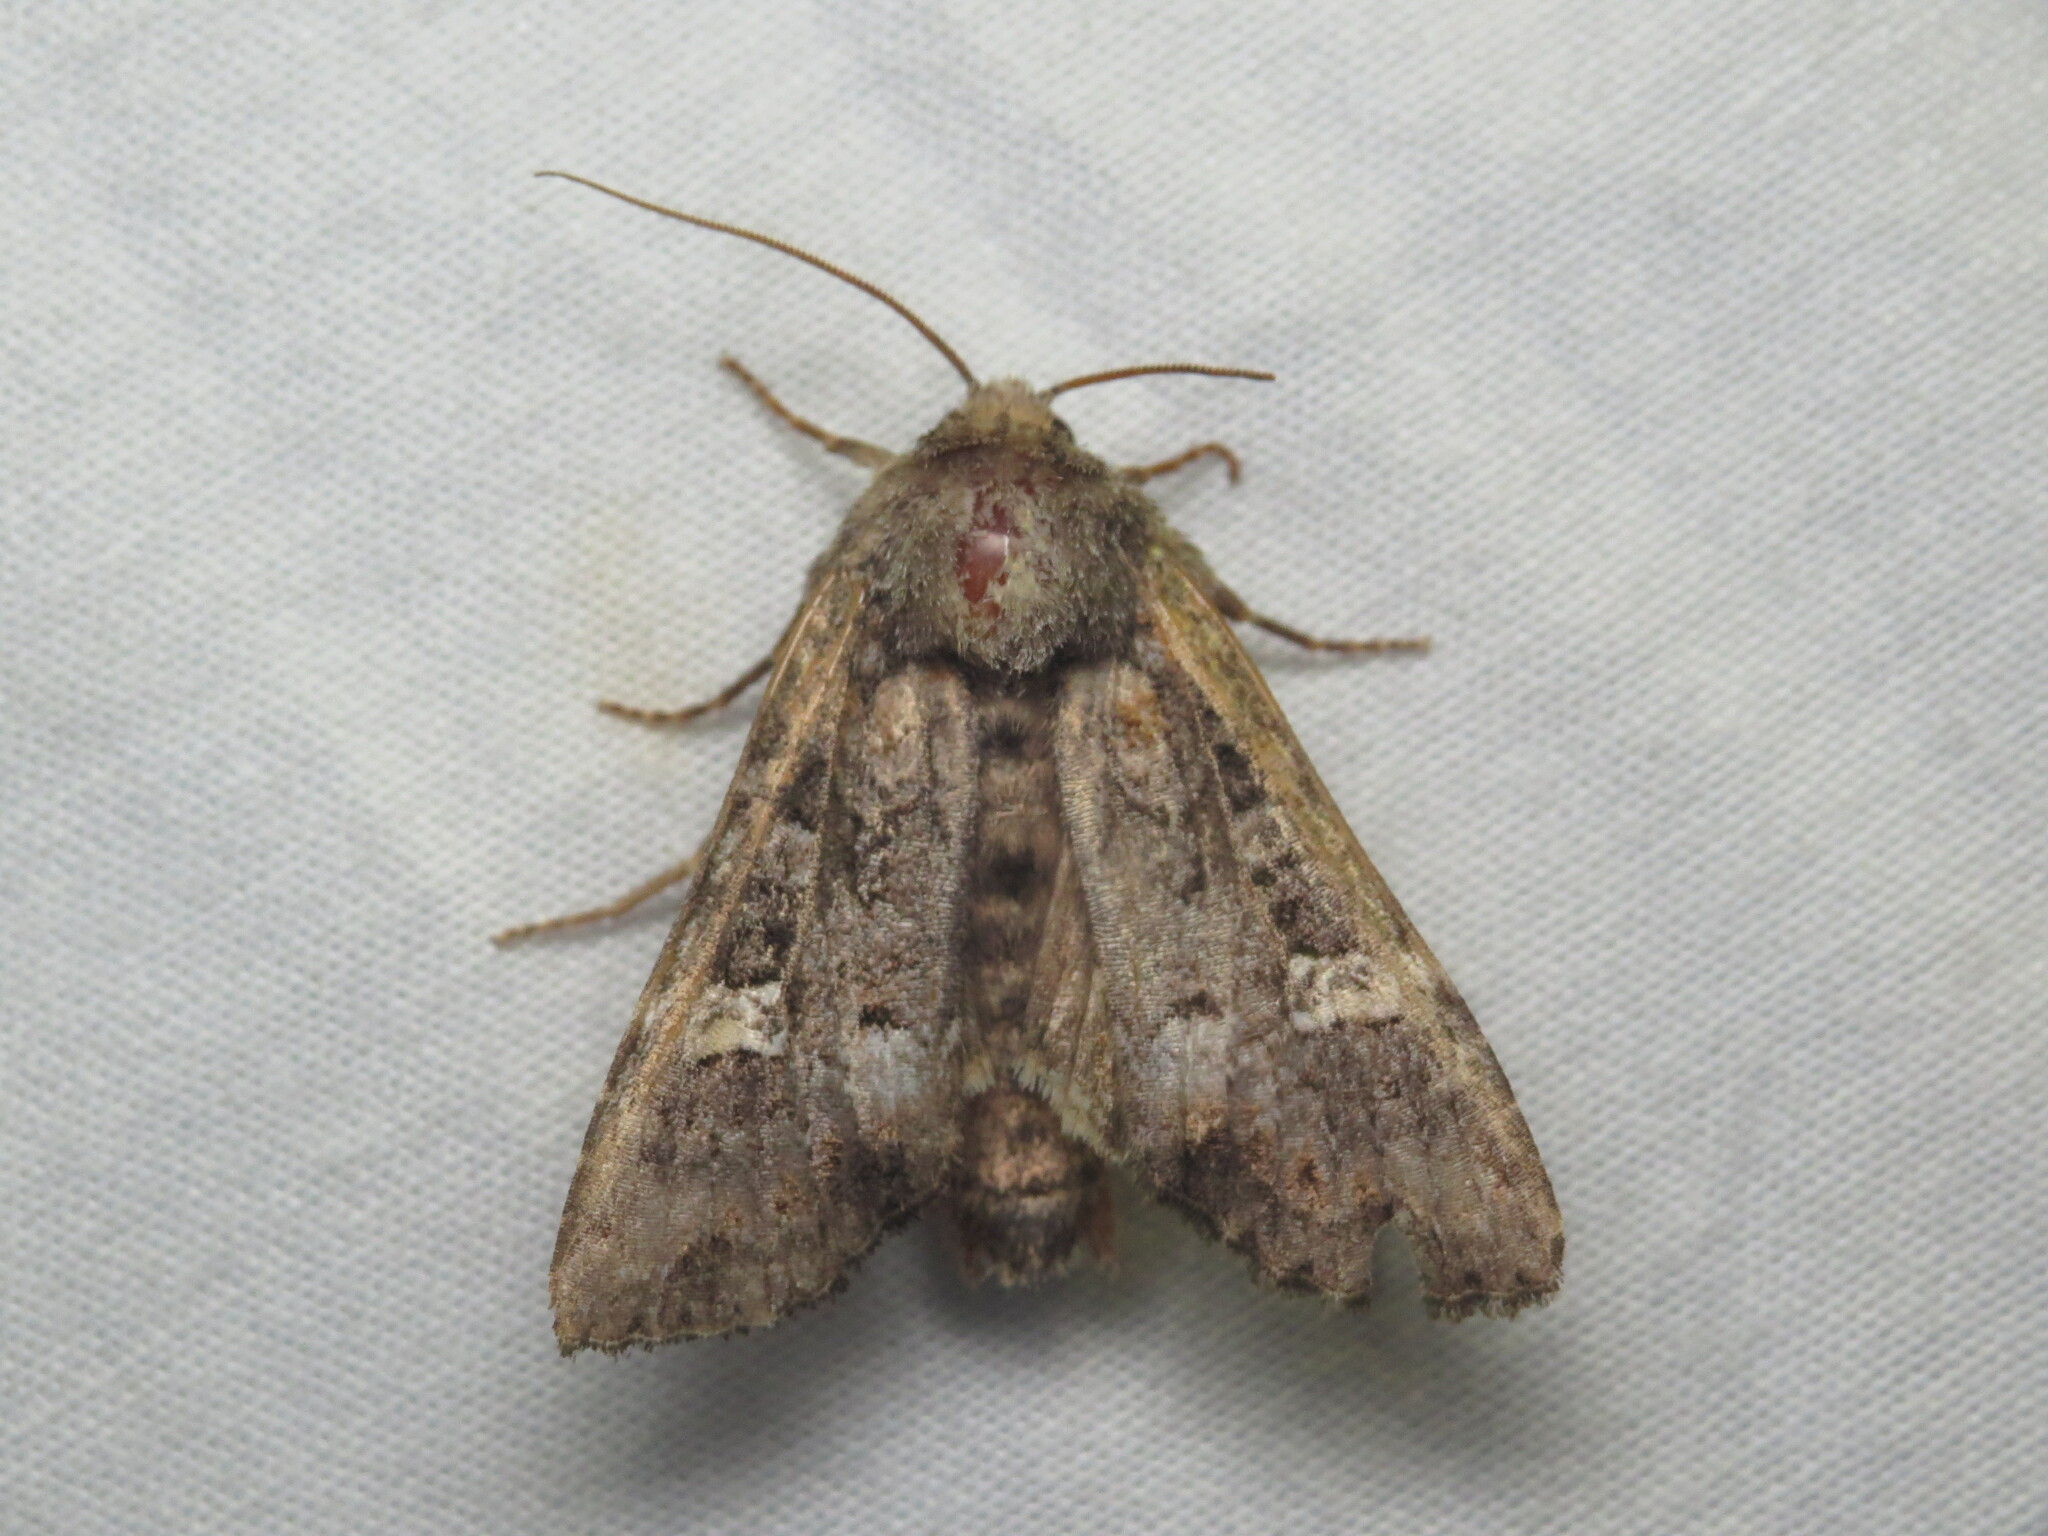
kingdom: Animalia
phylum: Arthropoda
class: Insecta
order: Lepidoptera
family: Noctuidae
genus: Spiramater
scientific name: Spiramater lutra
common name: Otter spiramater moth
